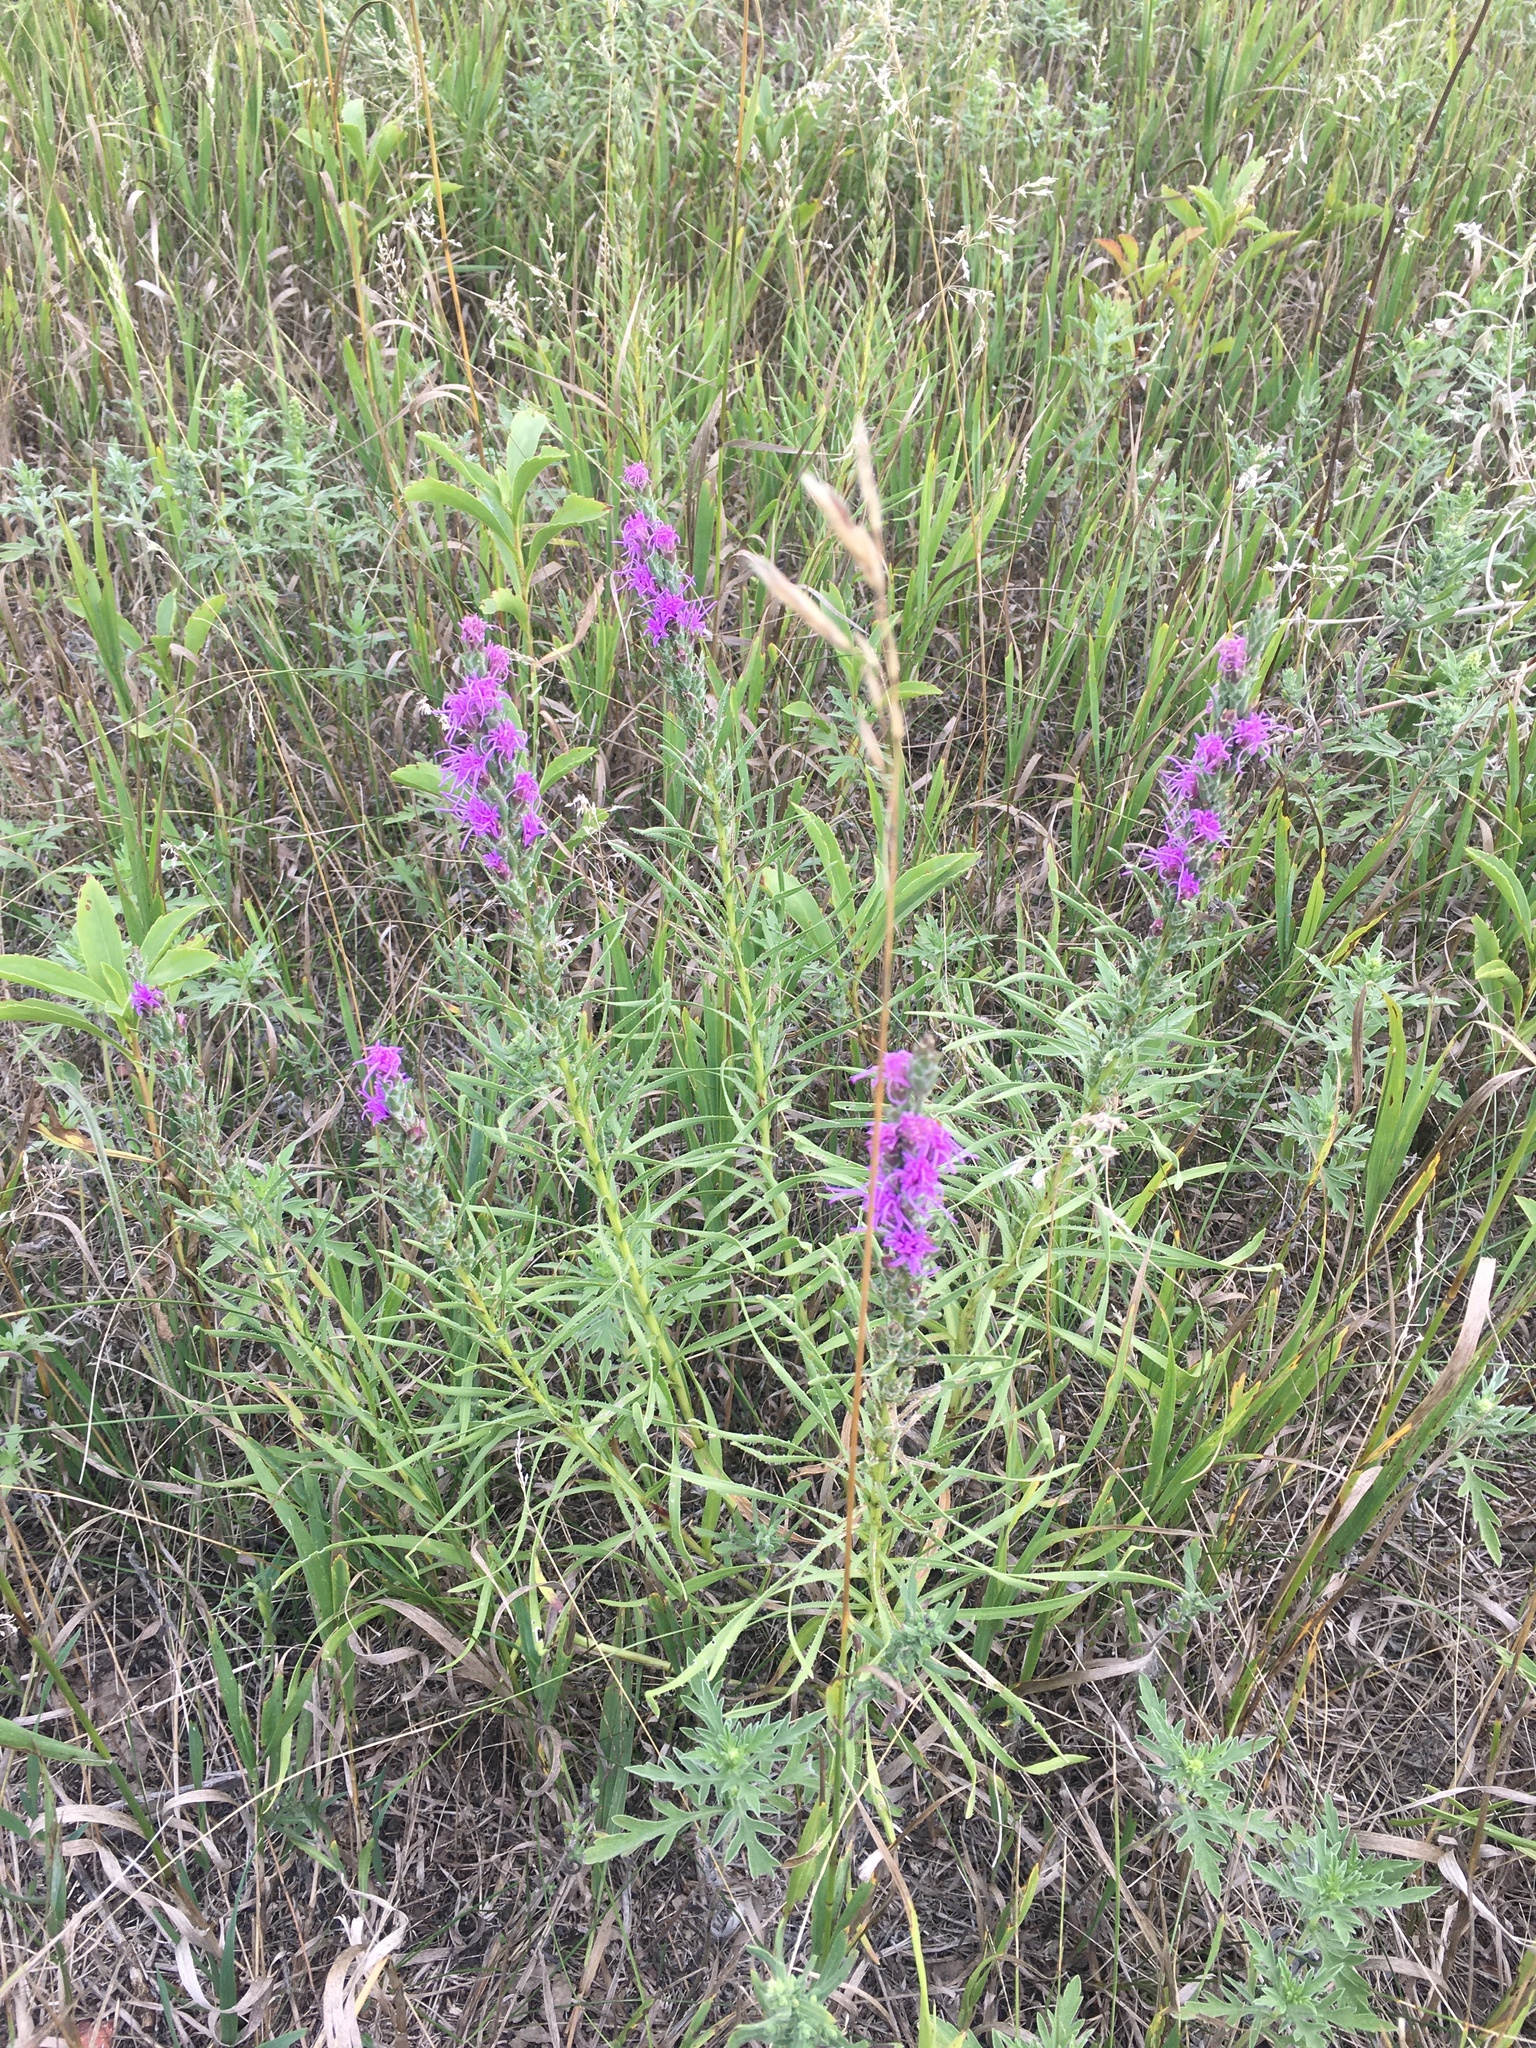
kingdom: Plantae
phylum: Tracheophyta
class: Magnoliopsida
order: Asterales
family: Asteraceae
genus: Liatris
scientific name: Liatris punctata
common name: Dotted gayfeather
